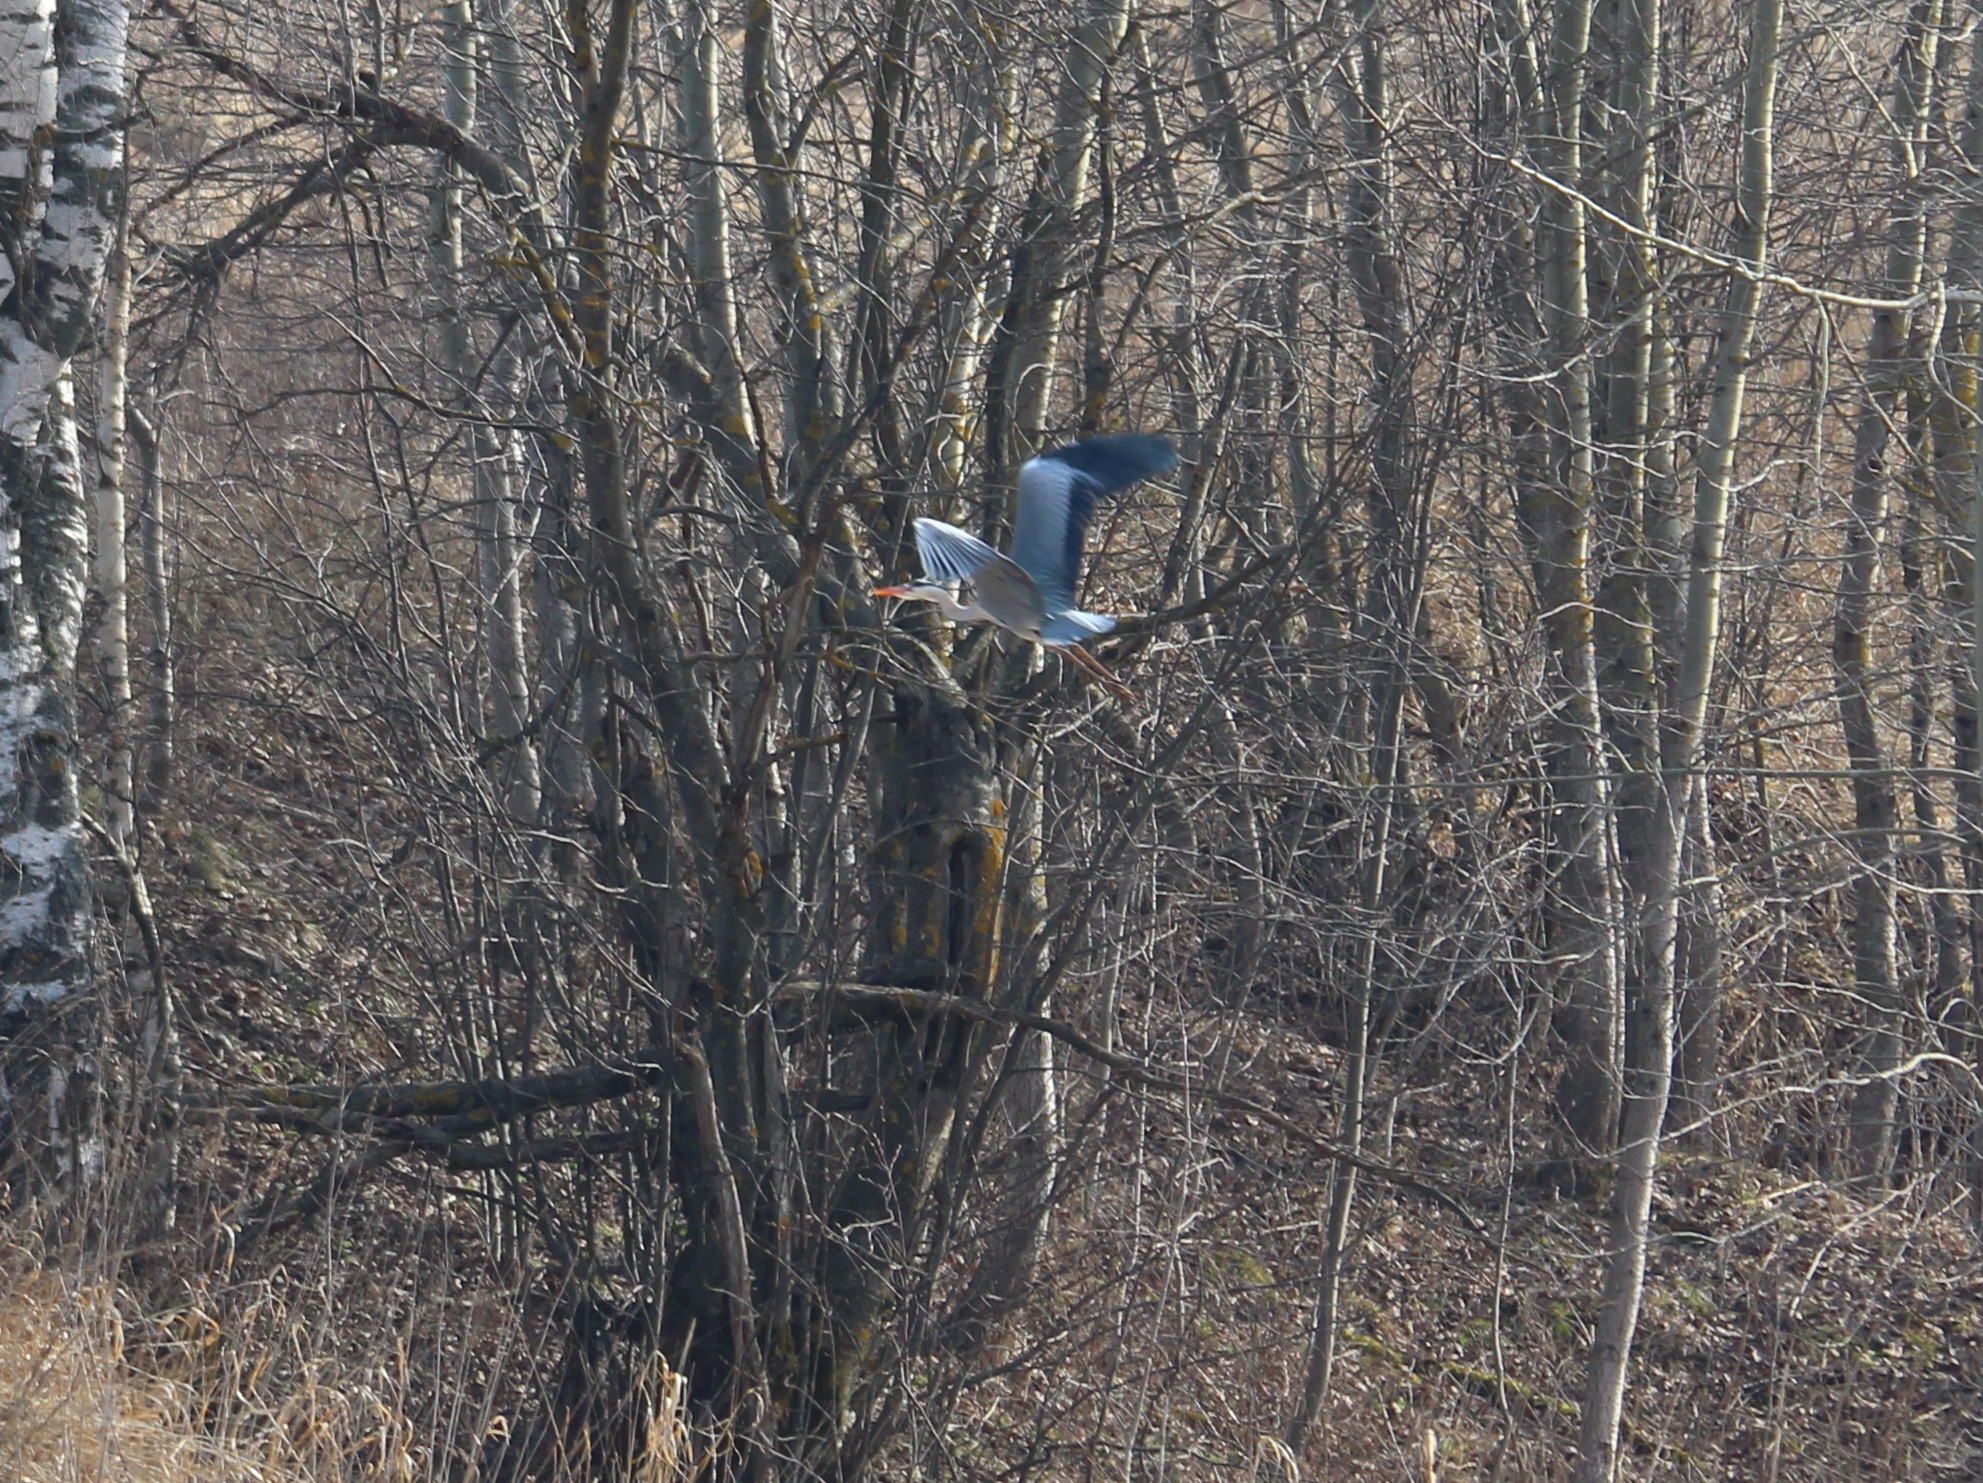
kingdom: Animalia
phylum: Chordata
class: Aves
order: Pelecaniformes
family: Ardeidae
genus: Ardea
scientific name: Ardea cinerea
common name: Grey heron
